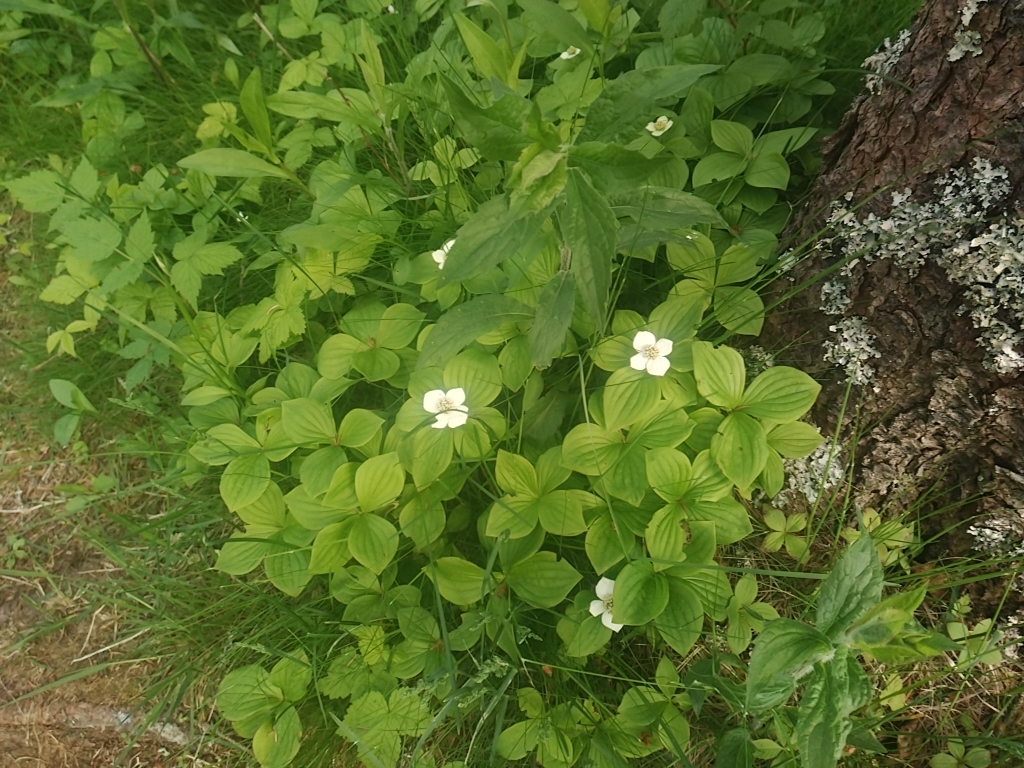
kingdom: Plantae
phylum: Tracheophyta
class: Magnoliopsida
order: Cornales
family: Cornaceae
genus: Cornus
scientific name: Cornus canadensis
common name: Creeping dogwood
